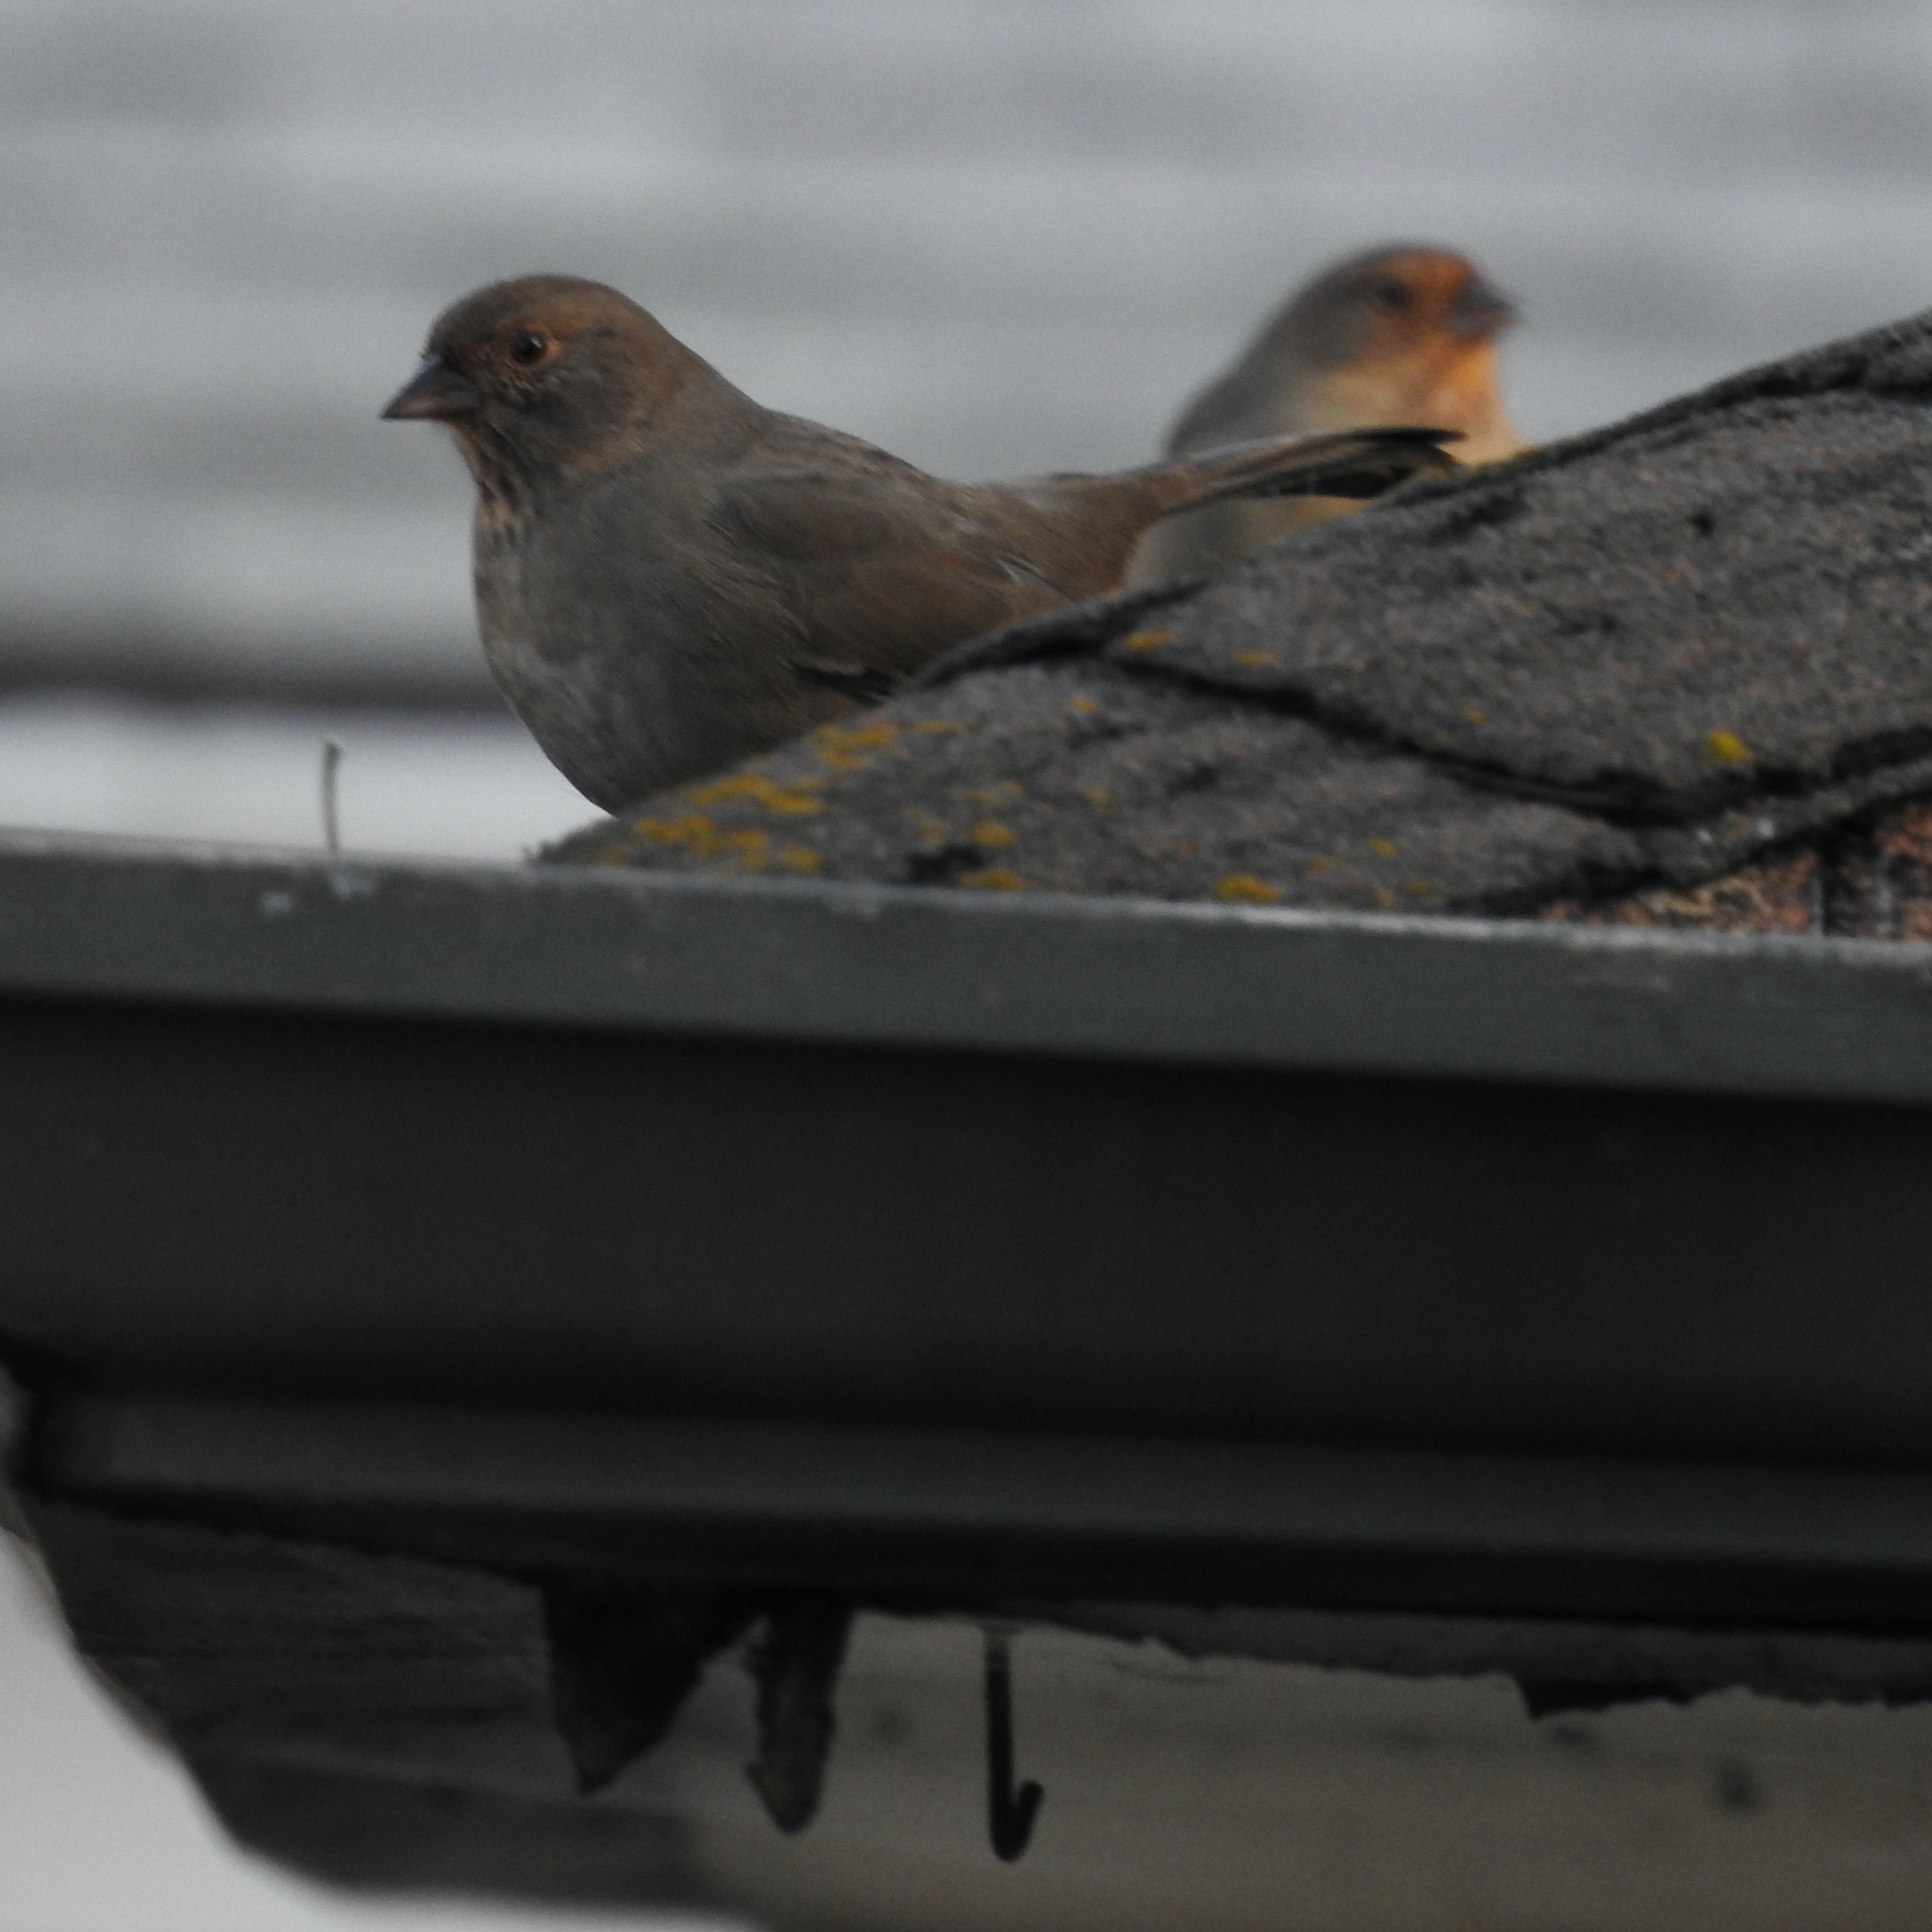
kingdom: Animalia
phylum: Chordata
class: Aves
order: Passeriformes
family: Passerellidae
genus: Melozone
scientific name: Melozone crissalis
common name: California towhee
